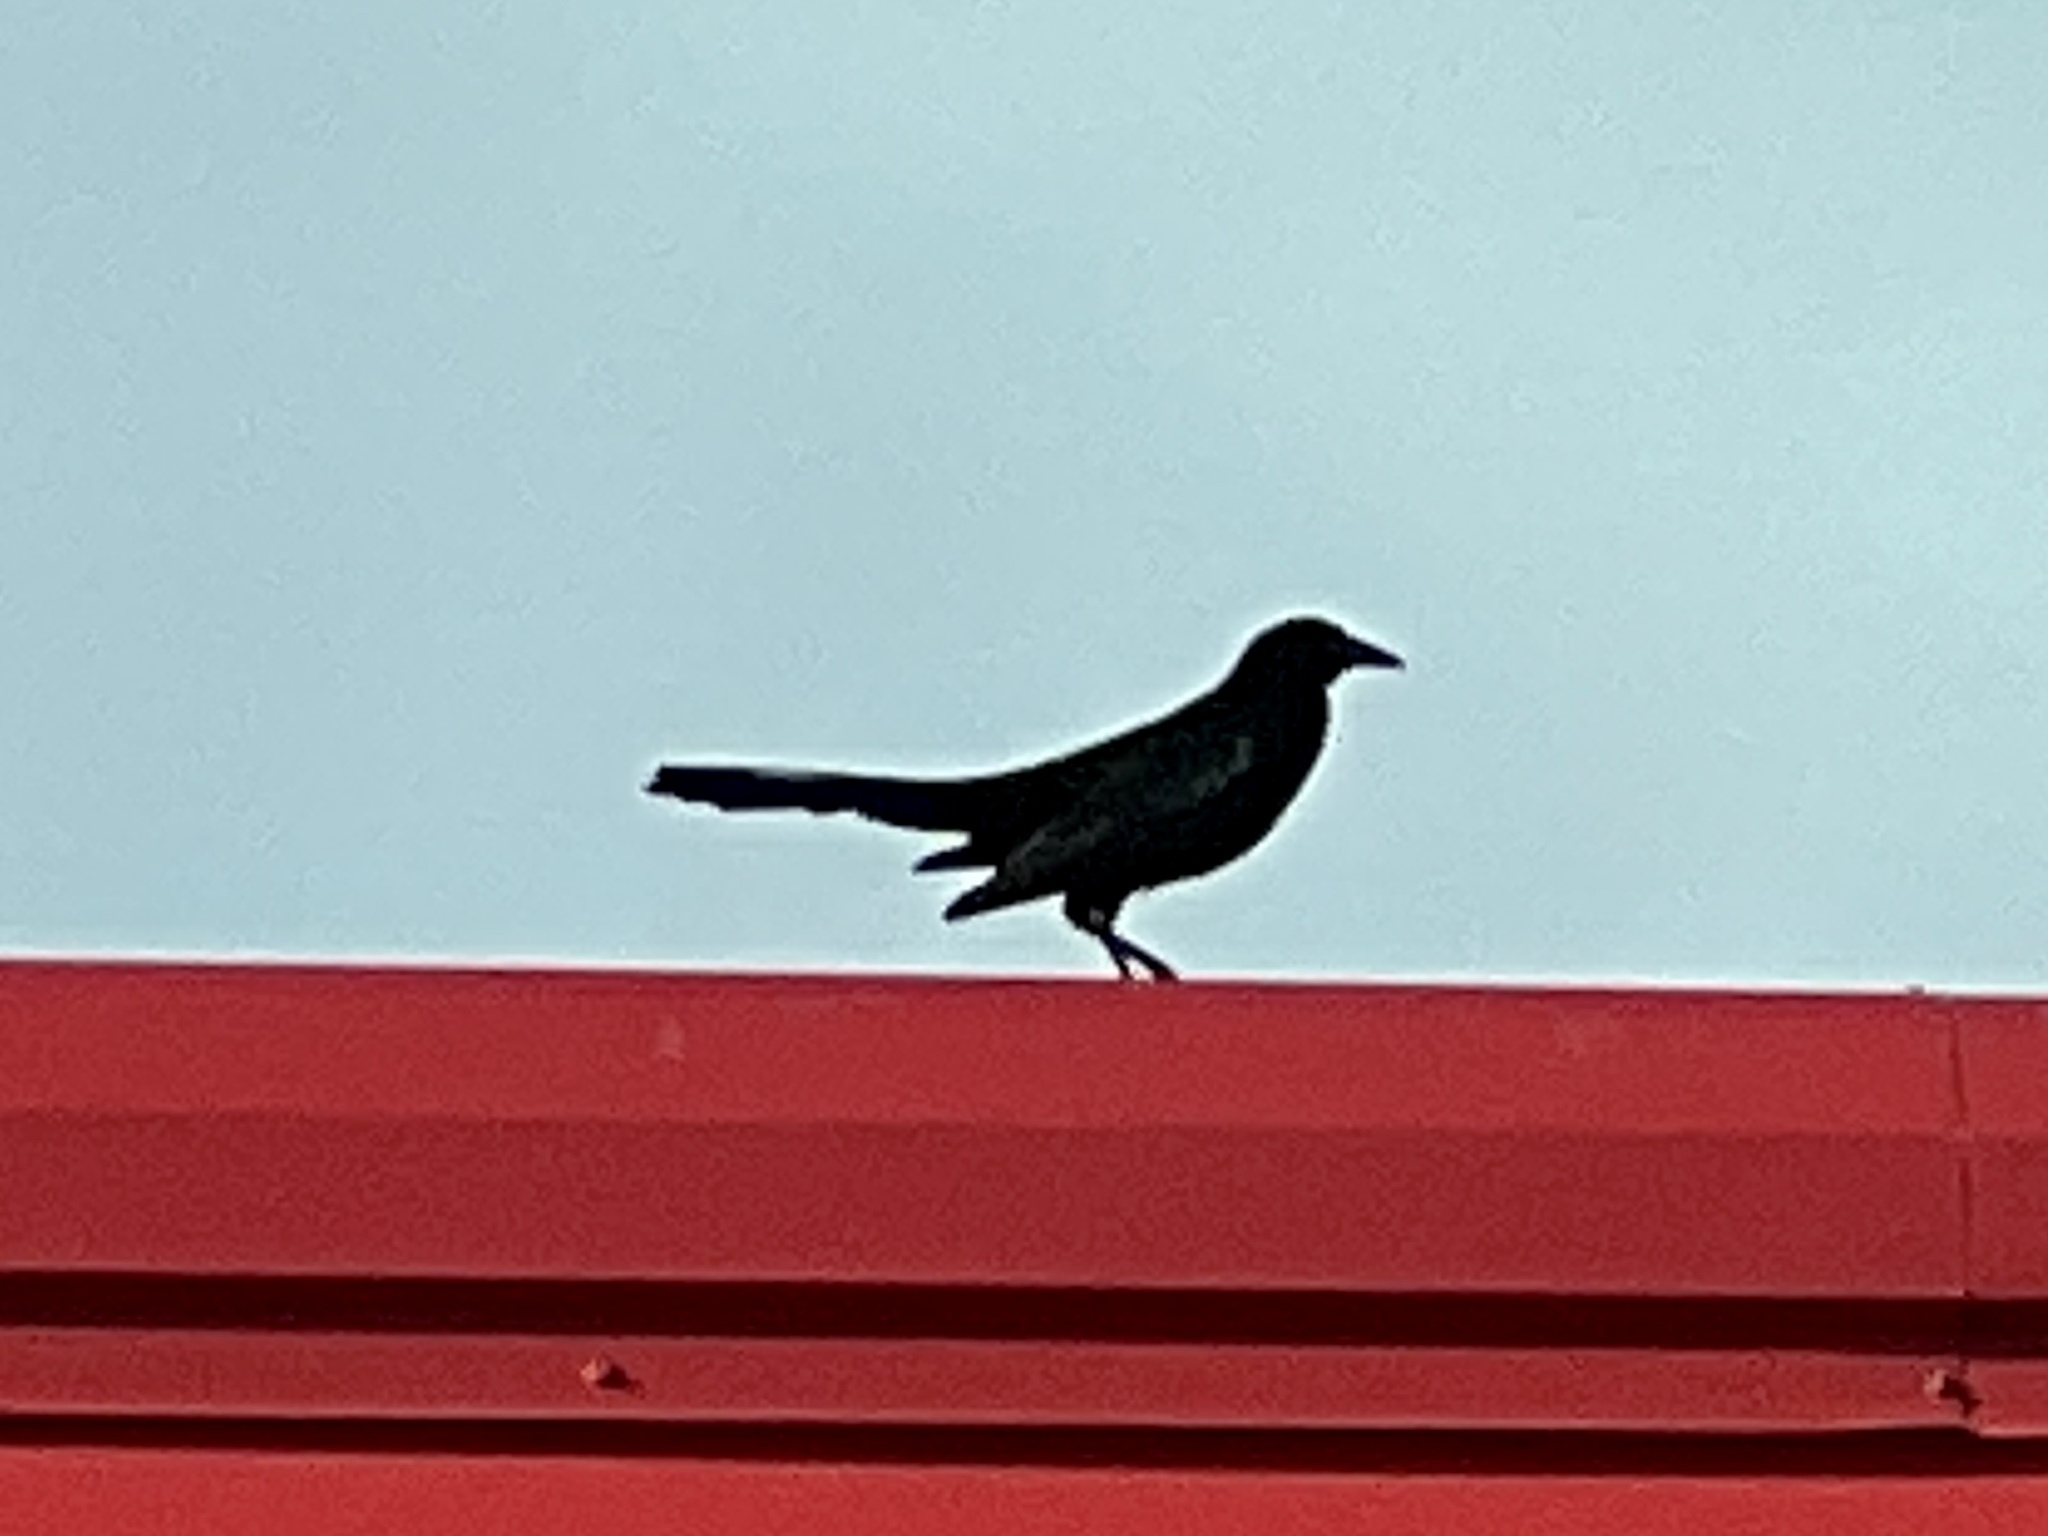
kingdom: Animalia
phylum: Chordata
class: Aves
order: Passeriformes
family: Icteridae
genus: Quiscalus
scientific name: Quiscalus mexicanus
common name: Great-tailed grackle
